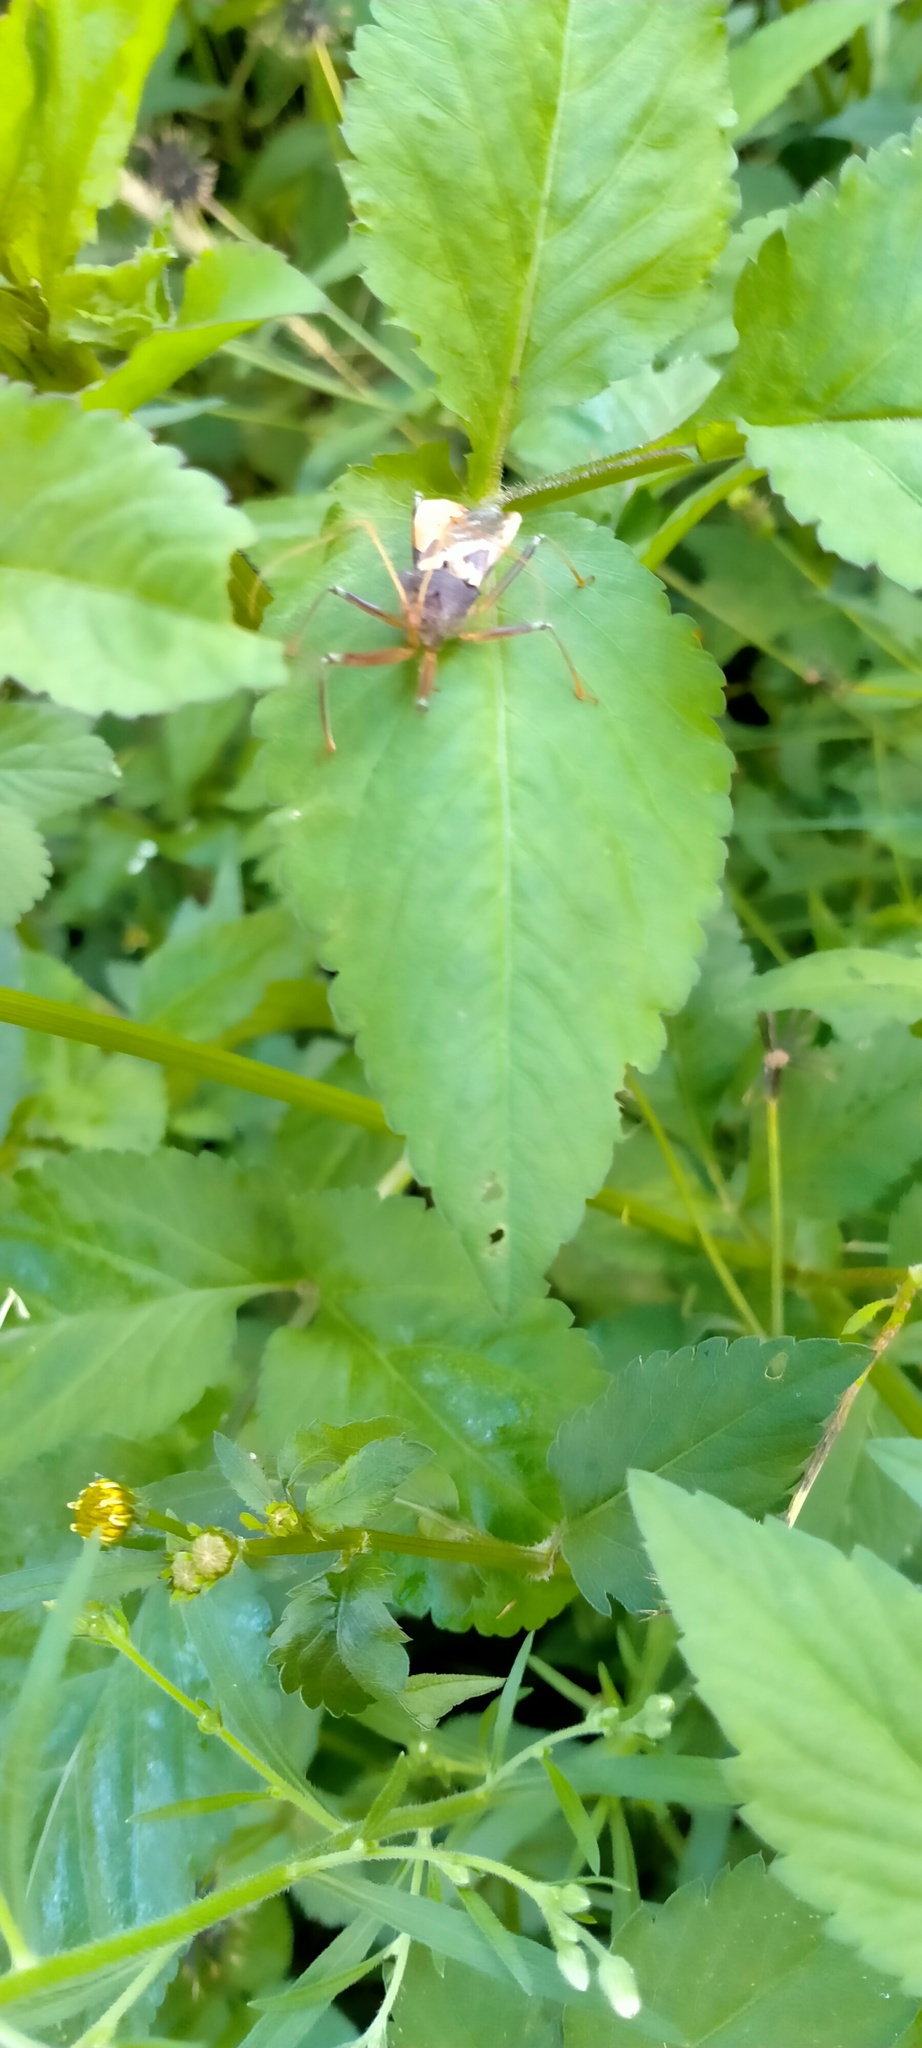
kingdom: Animalia
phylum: Arthropoda
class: Insecta
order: Hemiptera
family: Reduviidae
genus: Pristhesancus
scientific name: Pristhesancus plagipennis
